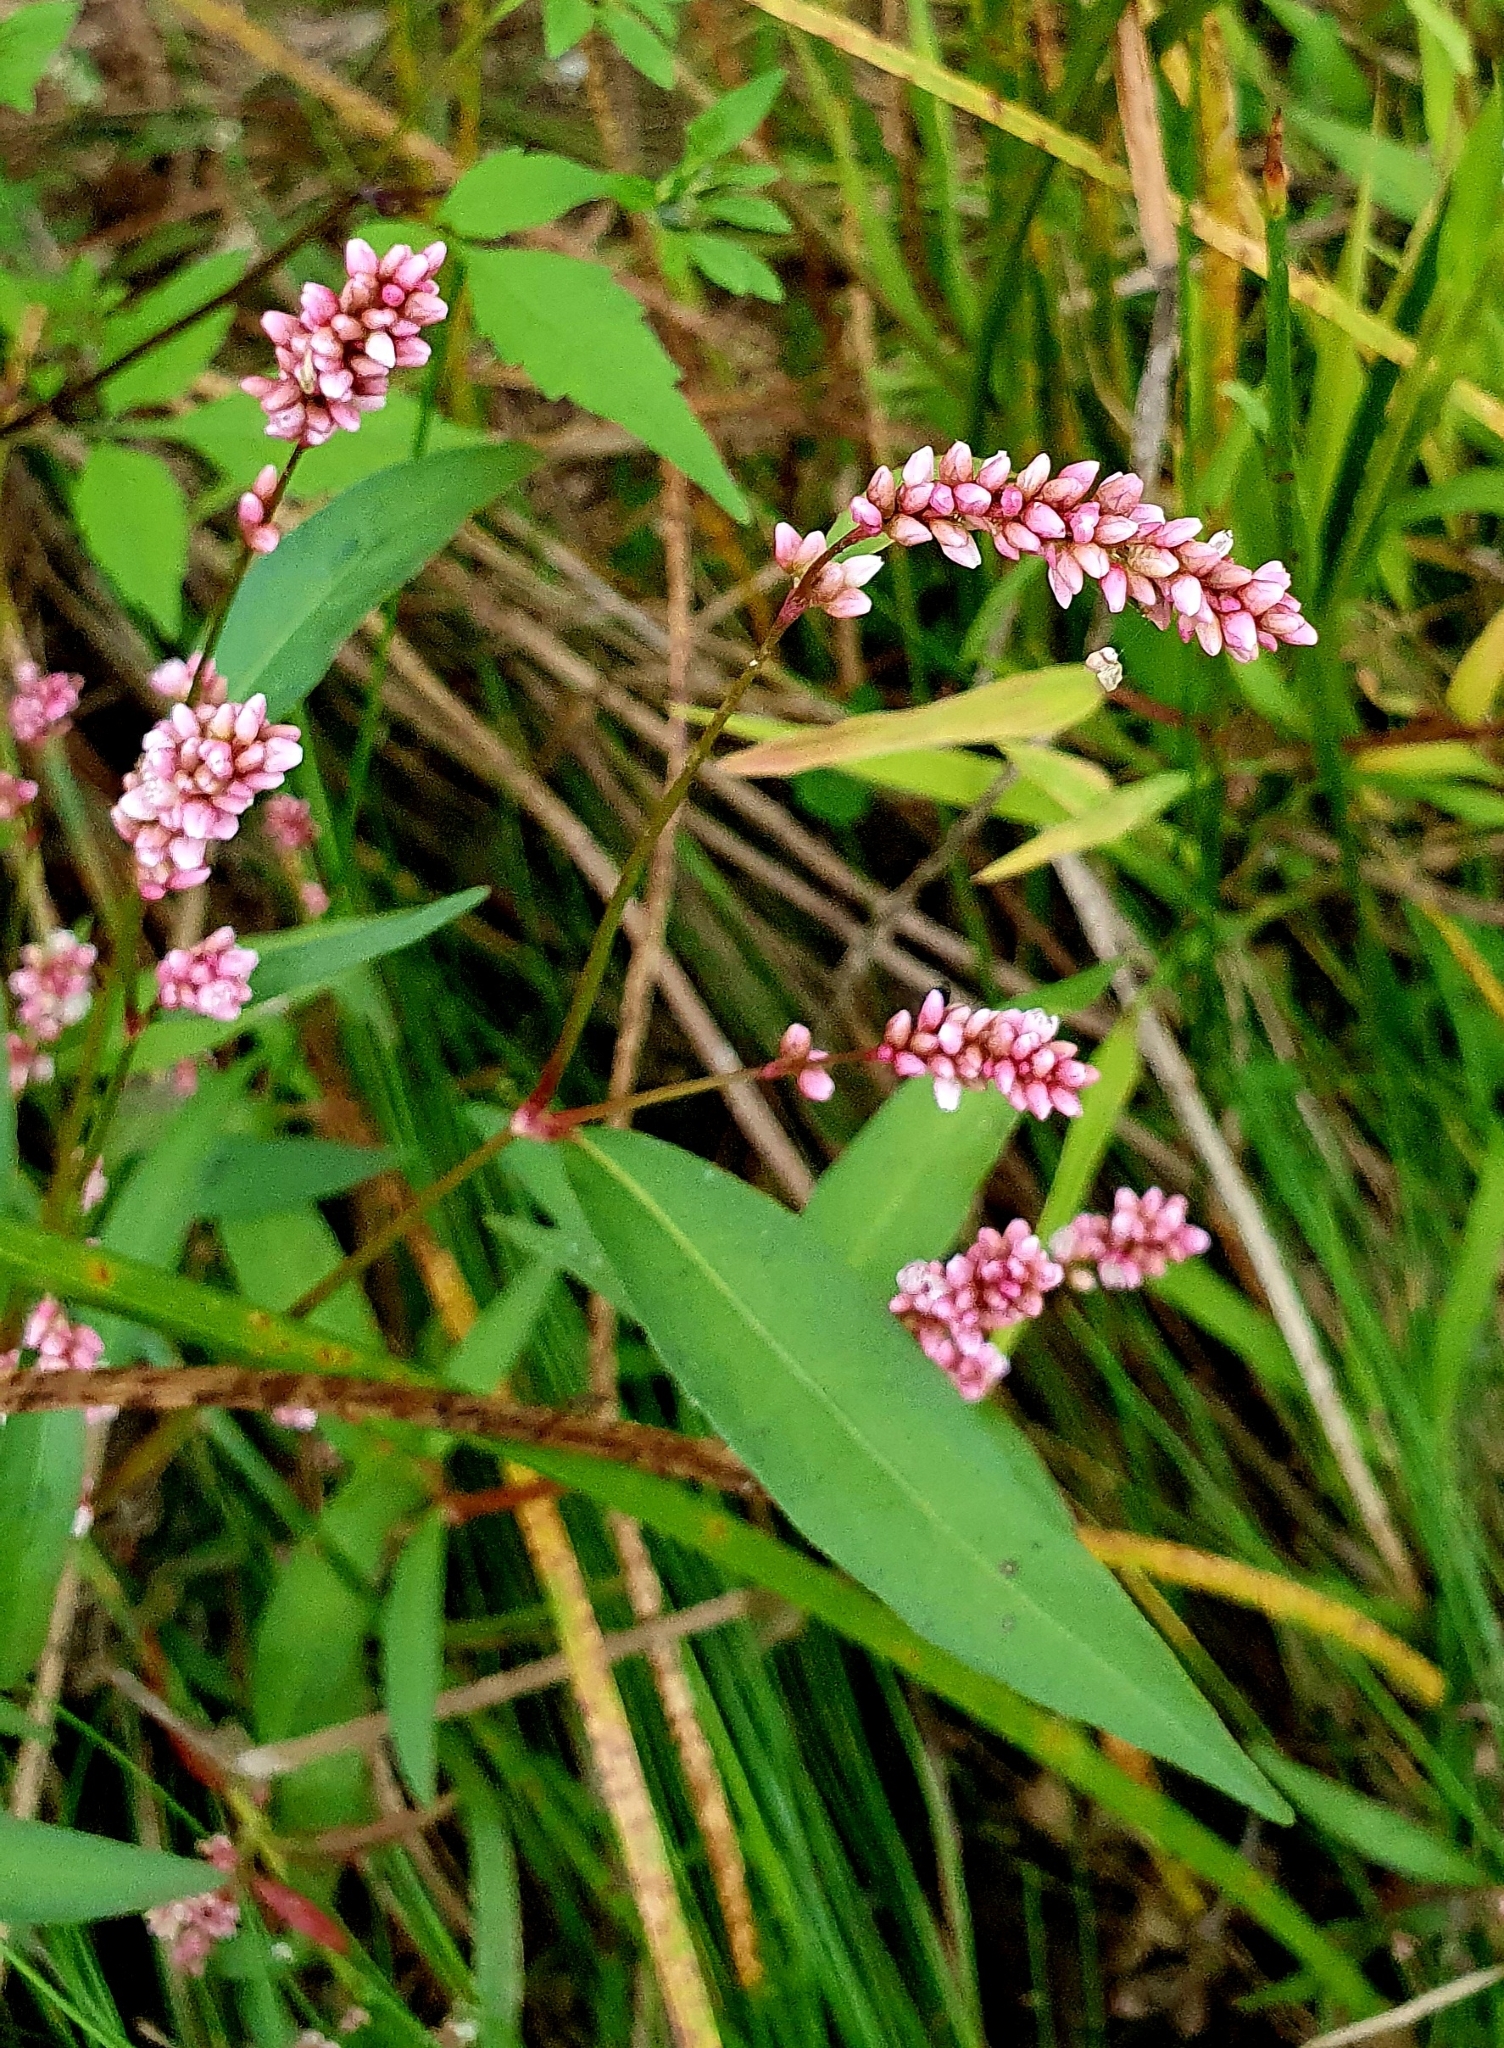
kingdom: Plantae
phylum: Tracheophyta
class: Magnoliopsida
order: Caryophyllales
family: Polygonaceae
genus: Persicaria
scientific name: Persicaria maculosa
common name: Redshank
